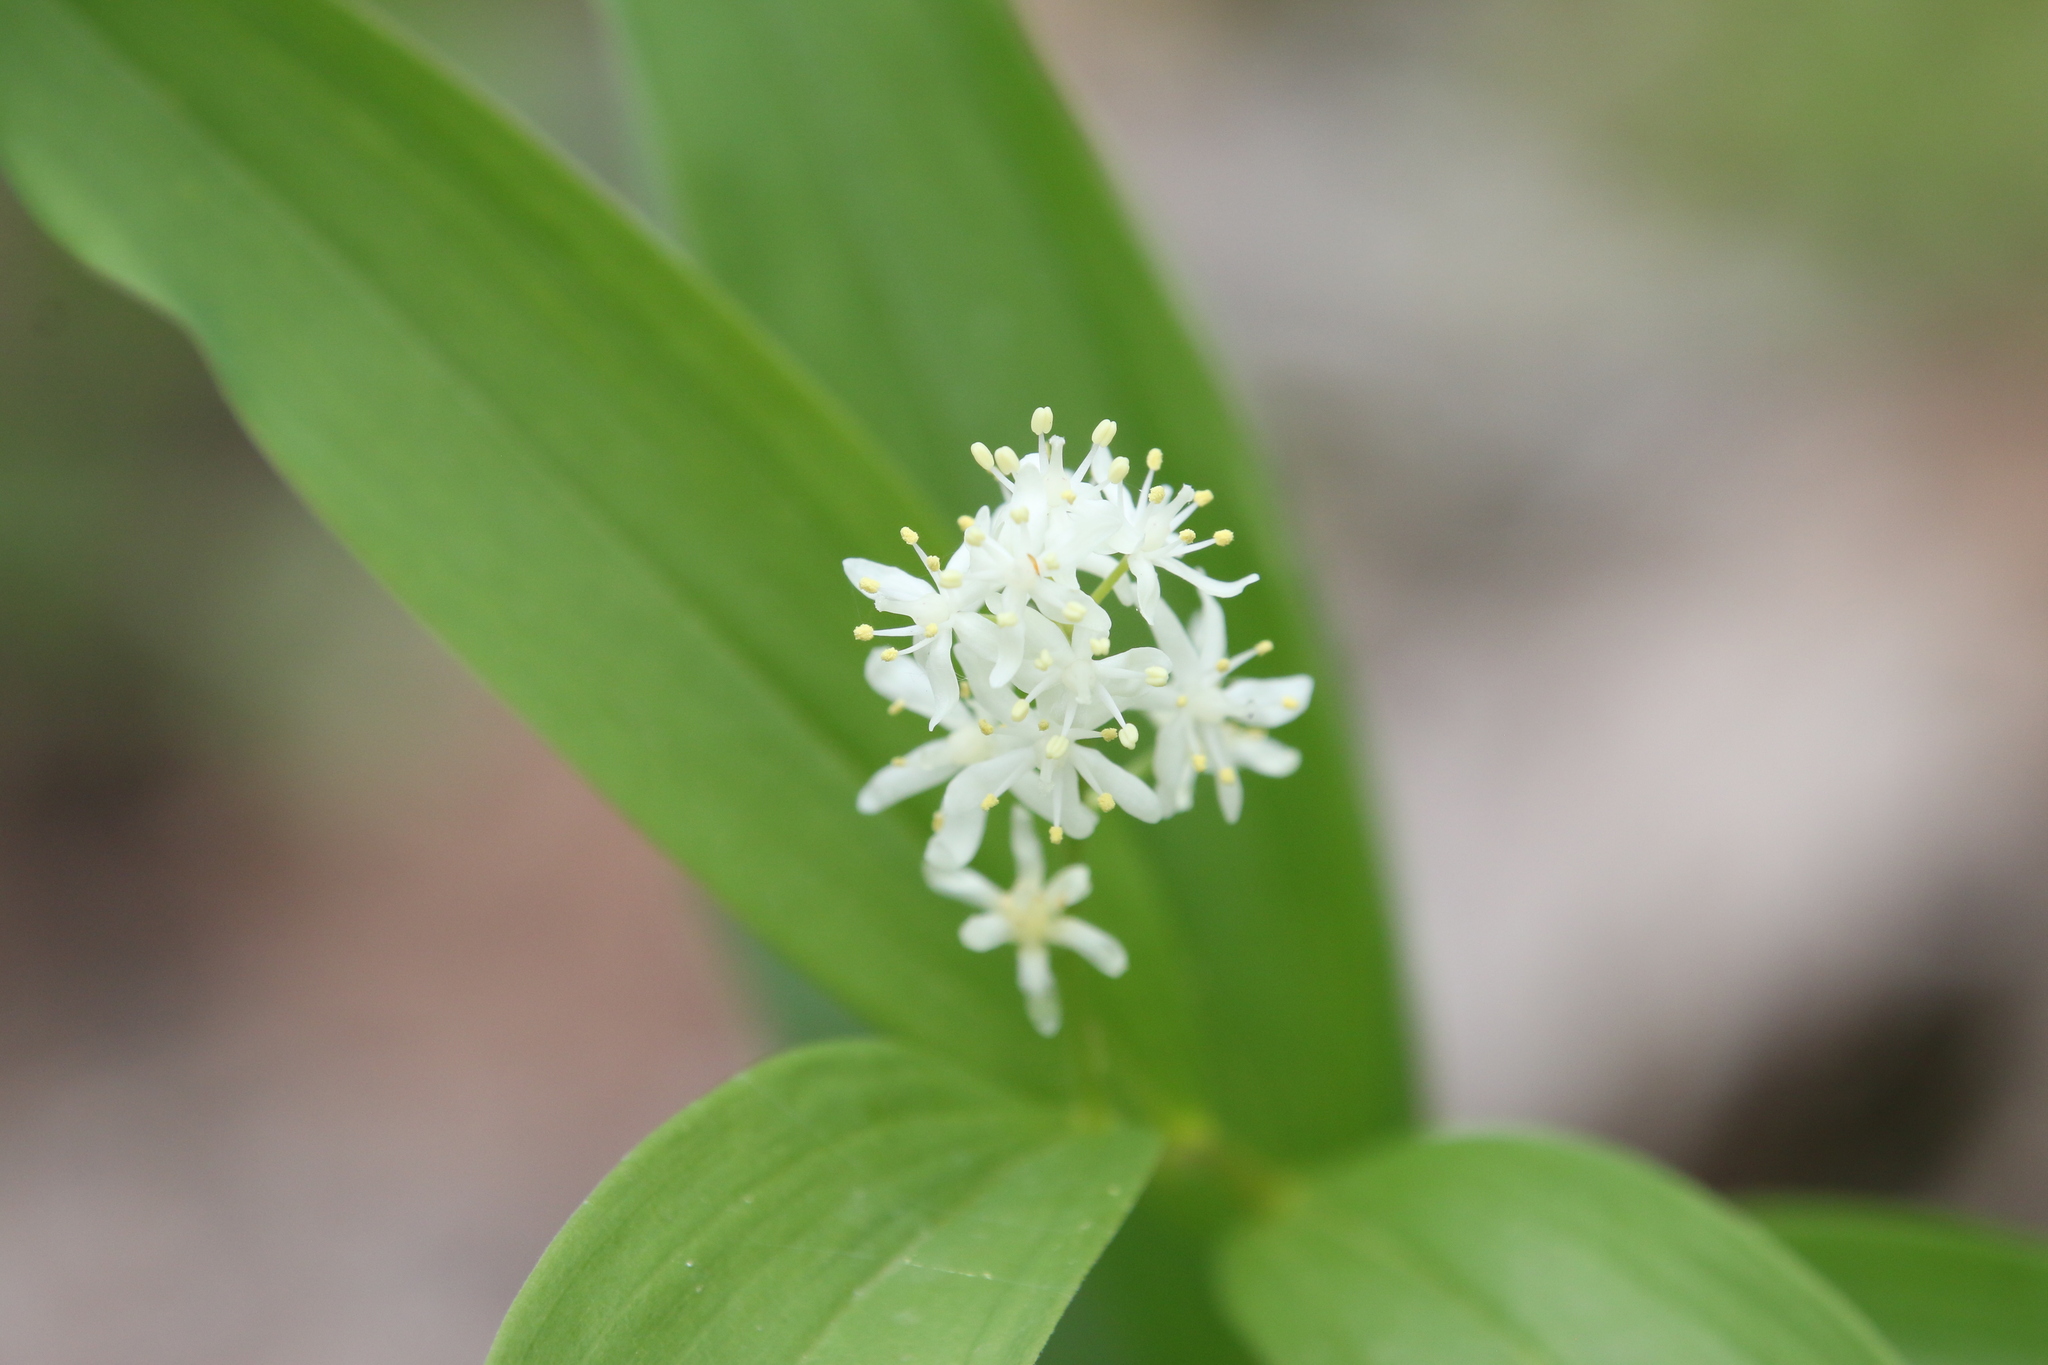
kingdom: Plantae
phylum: Tracheophyta
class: Liliopsida
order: Asparagales
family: Asparagaceae
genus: Maianthemum
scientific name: Maianthemum stellatum
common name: Little false solomon's seal
